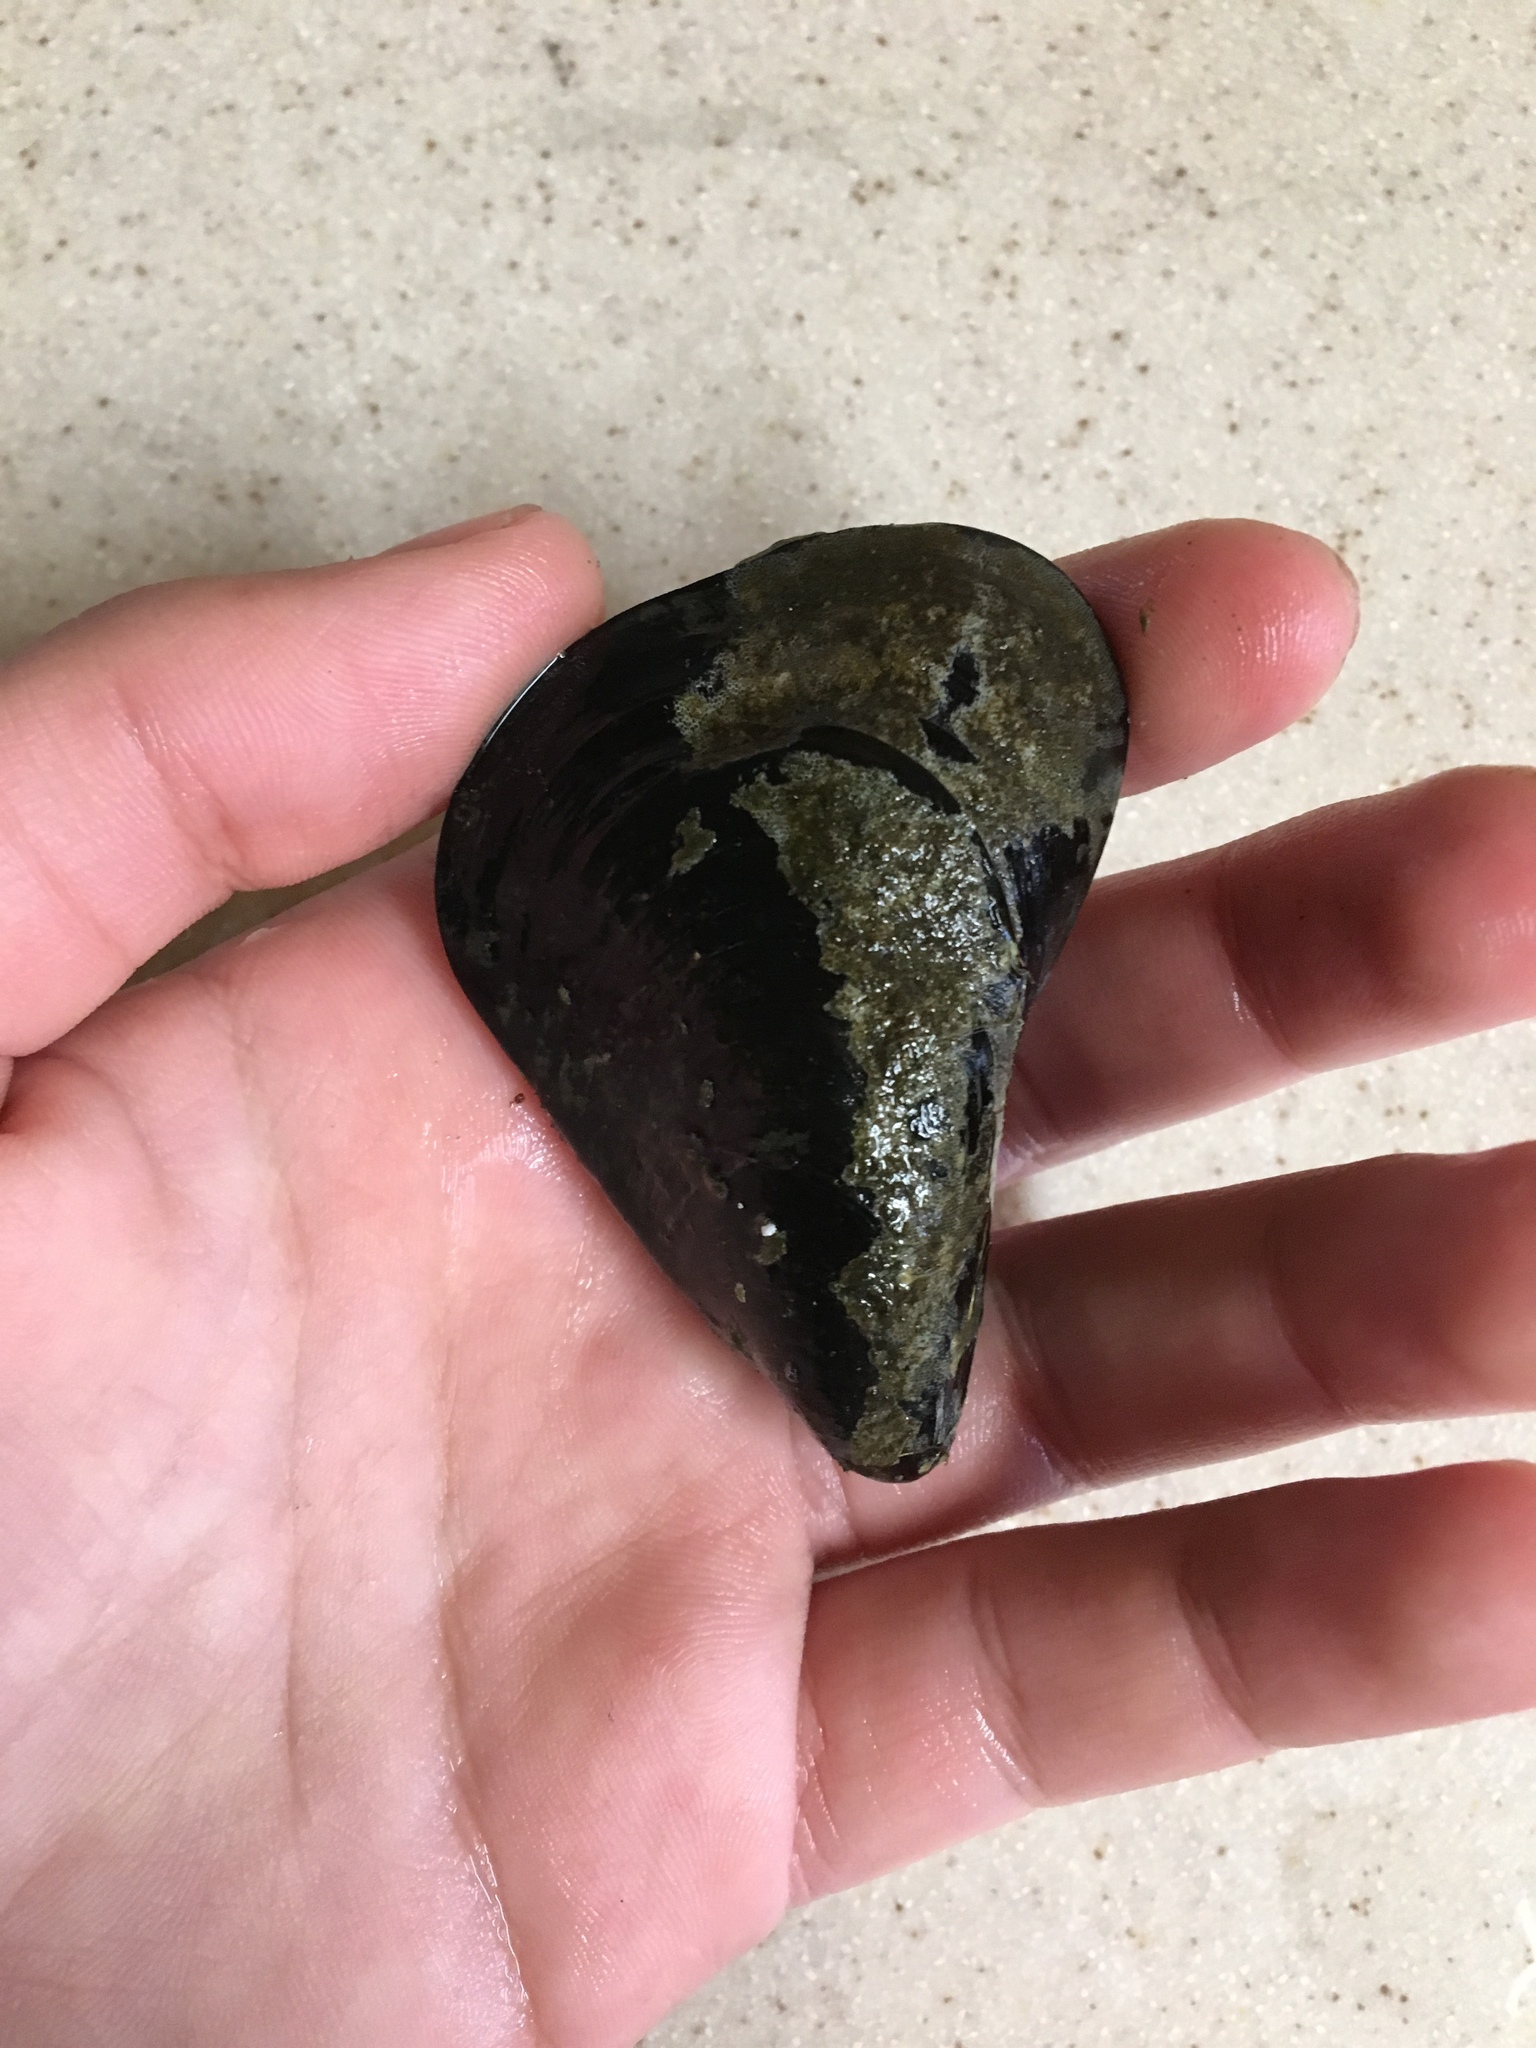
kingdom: Animalia
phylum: Mollusca
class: Bivalvia
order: Mytilida
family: Mytilidae
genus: Mytilus
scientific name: Mytilus
